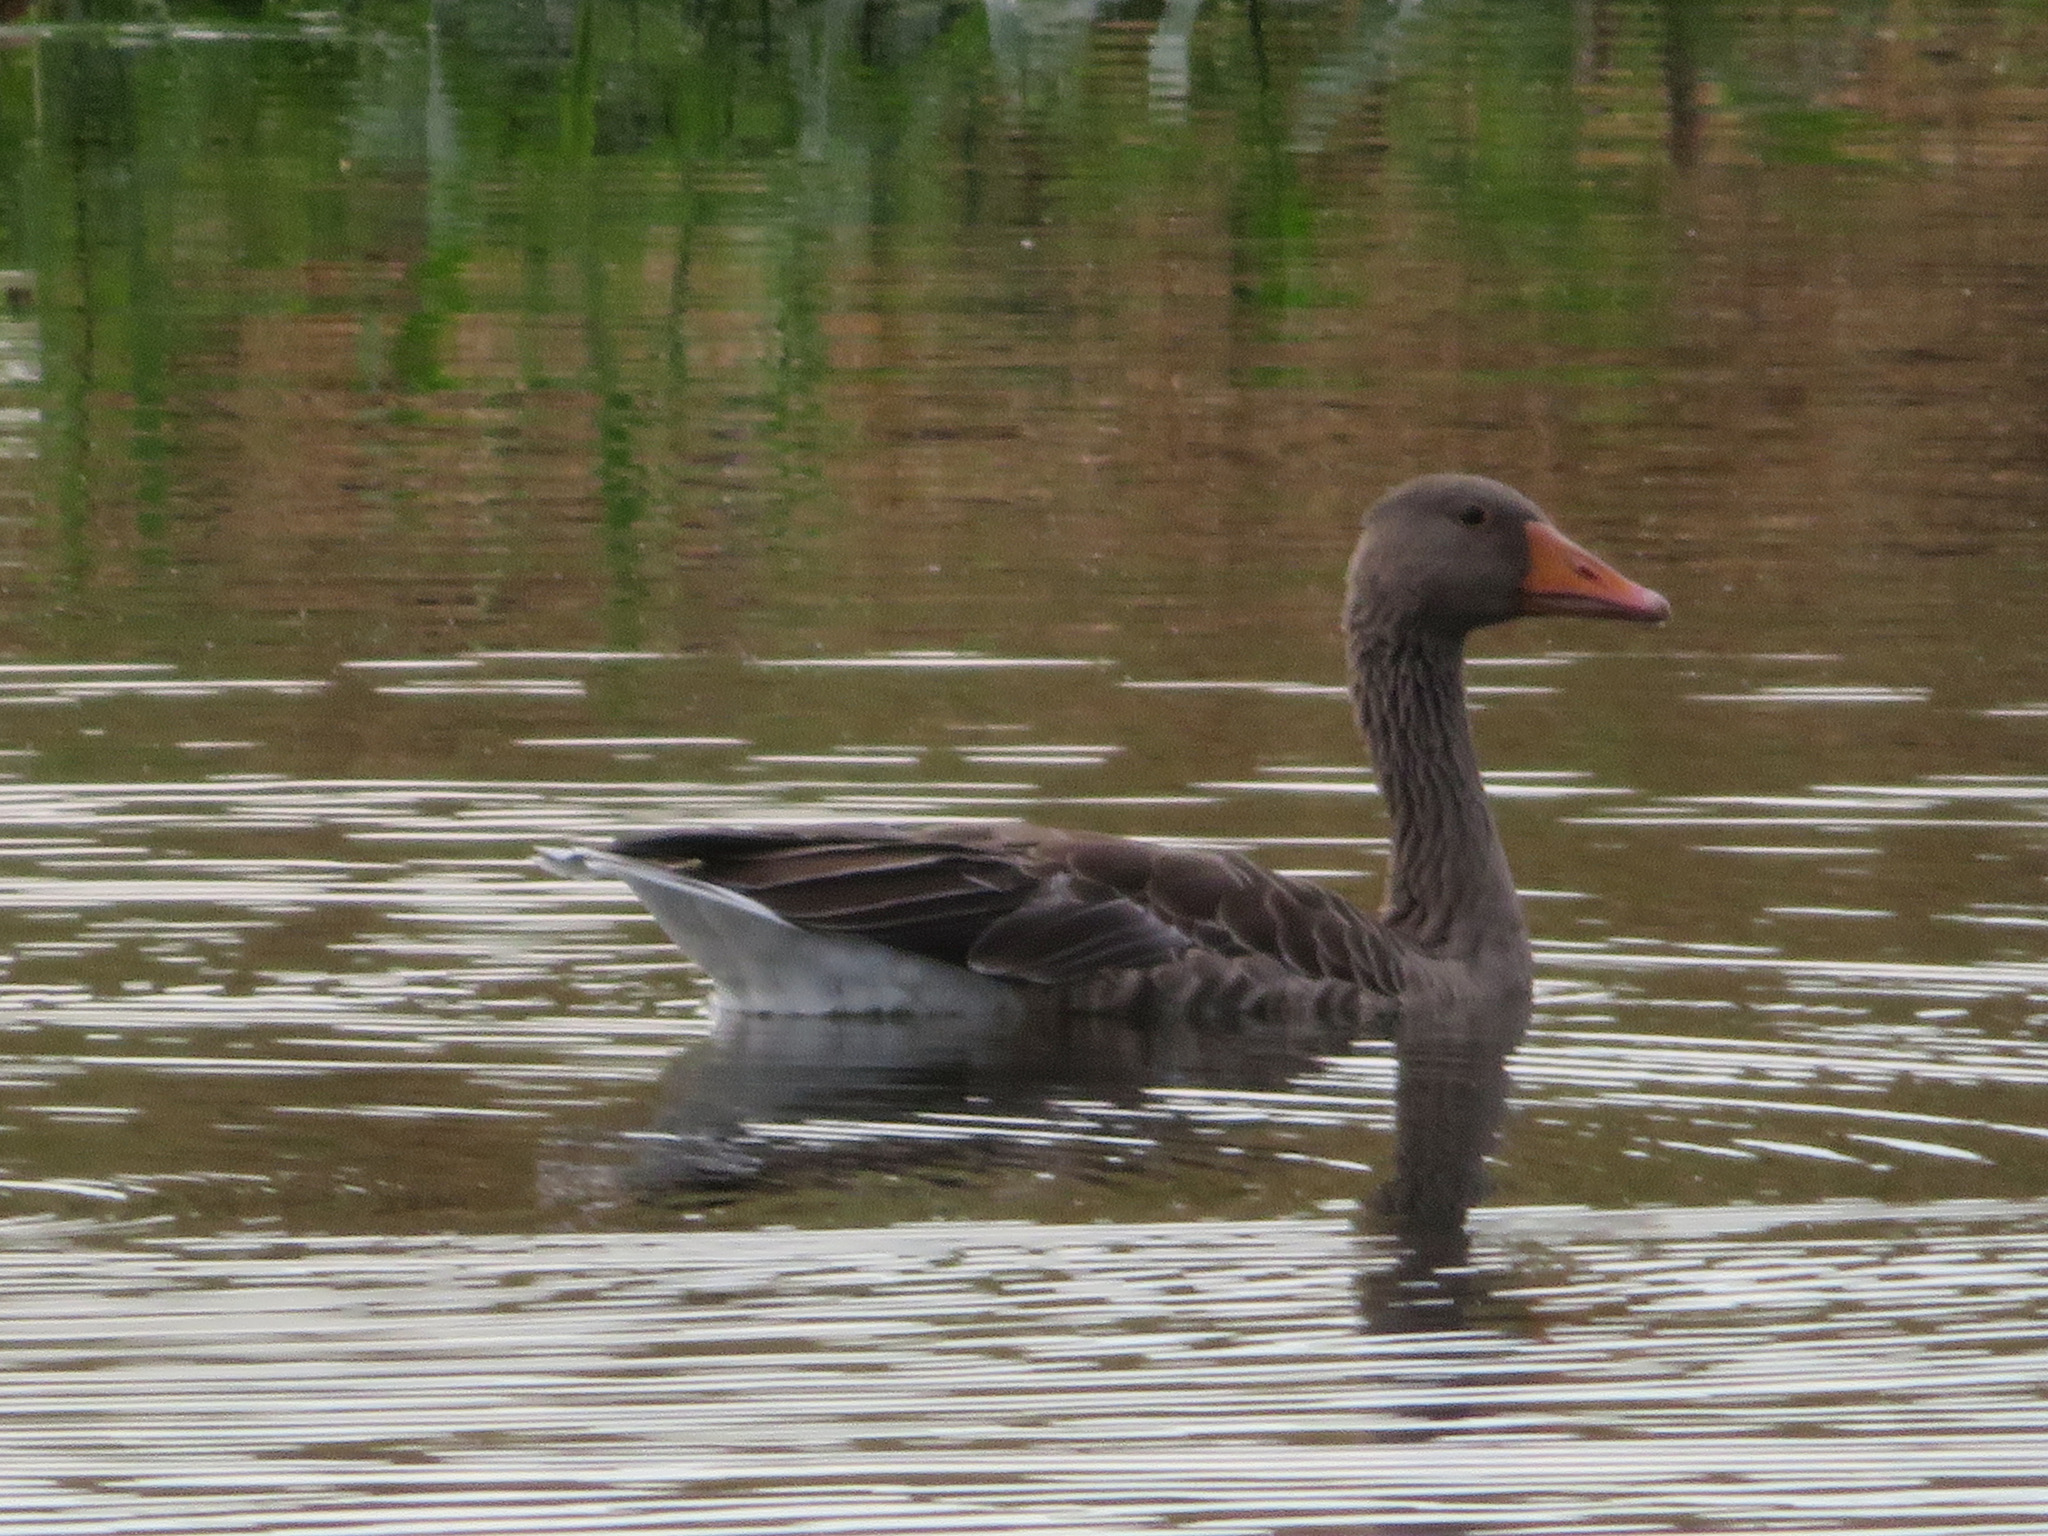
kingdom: Animalia
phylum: Chordata
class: Aves
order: Anseriformes
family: Anatidae
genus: Anser
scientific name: Anser anser
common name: Greylag goose
